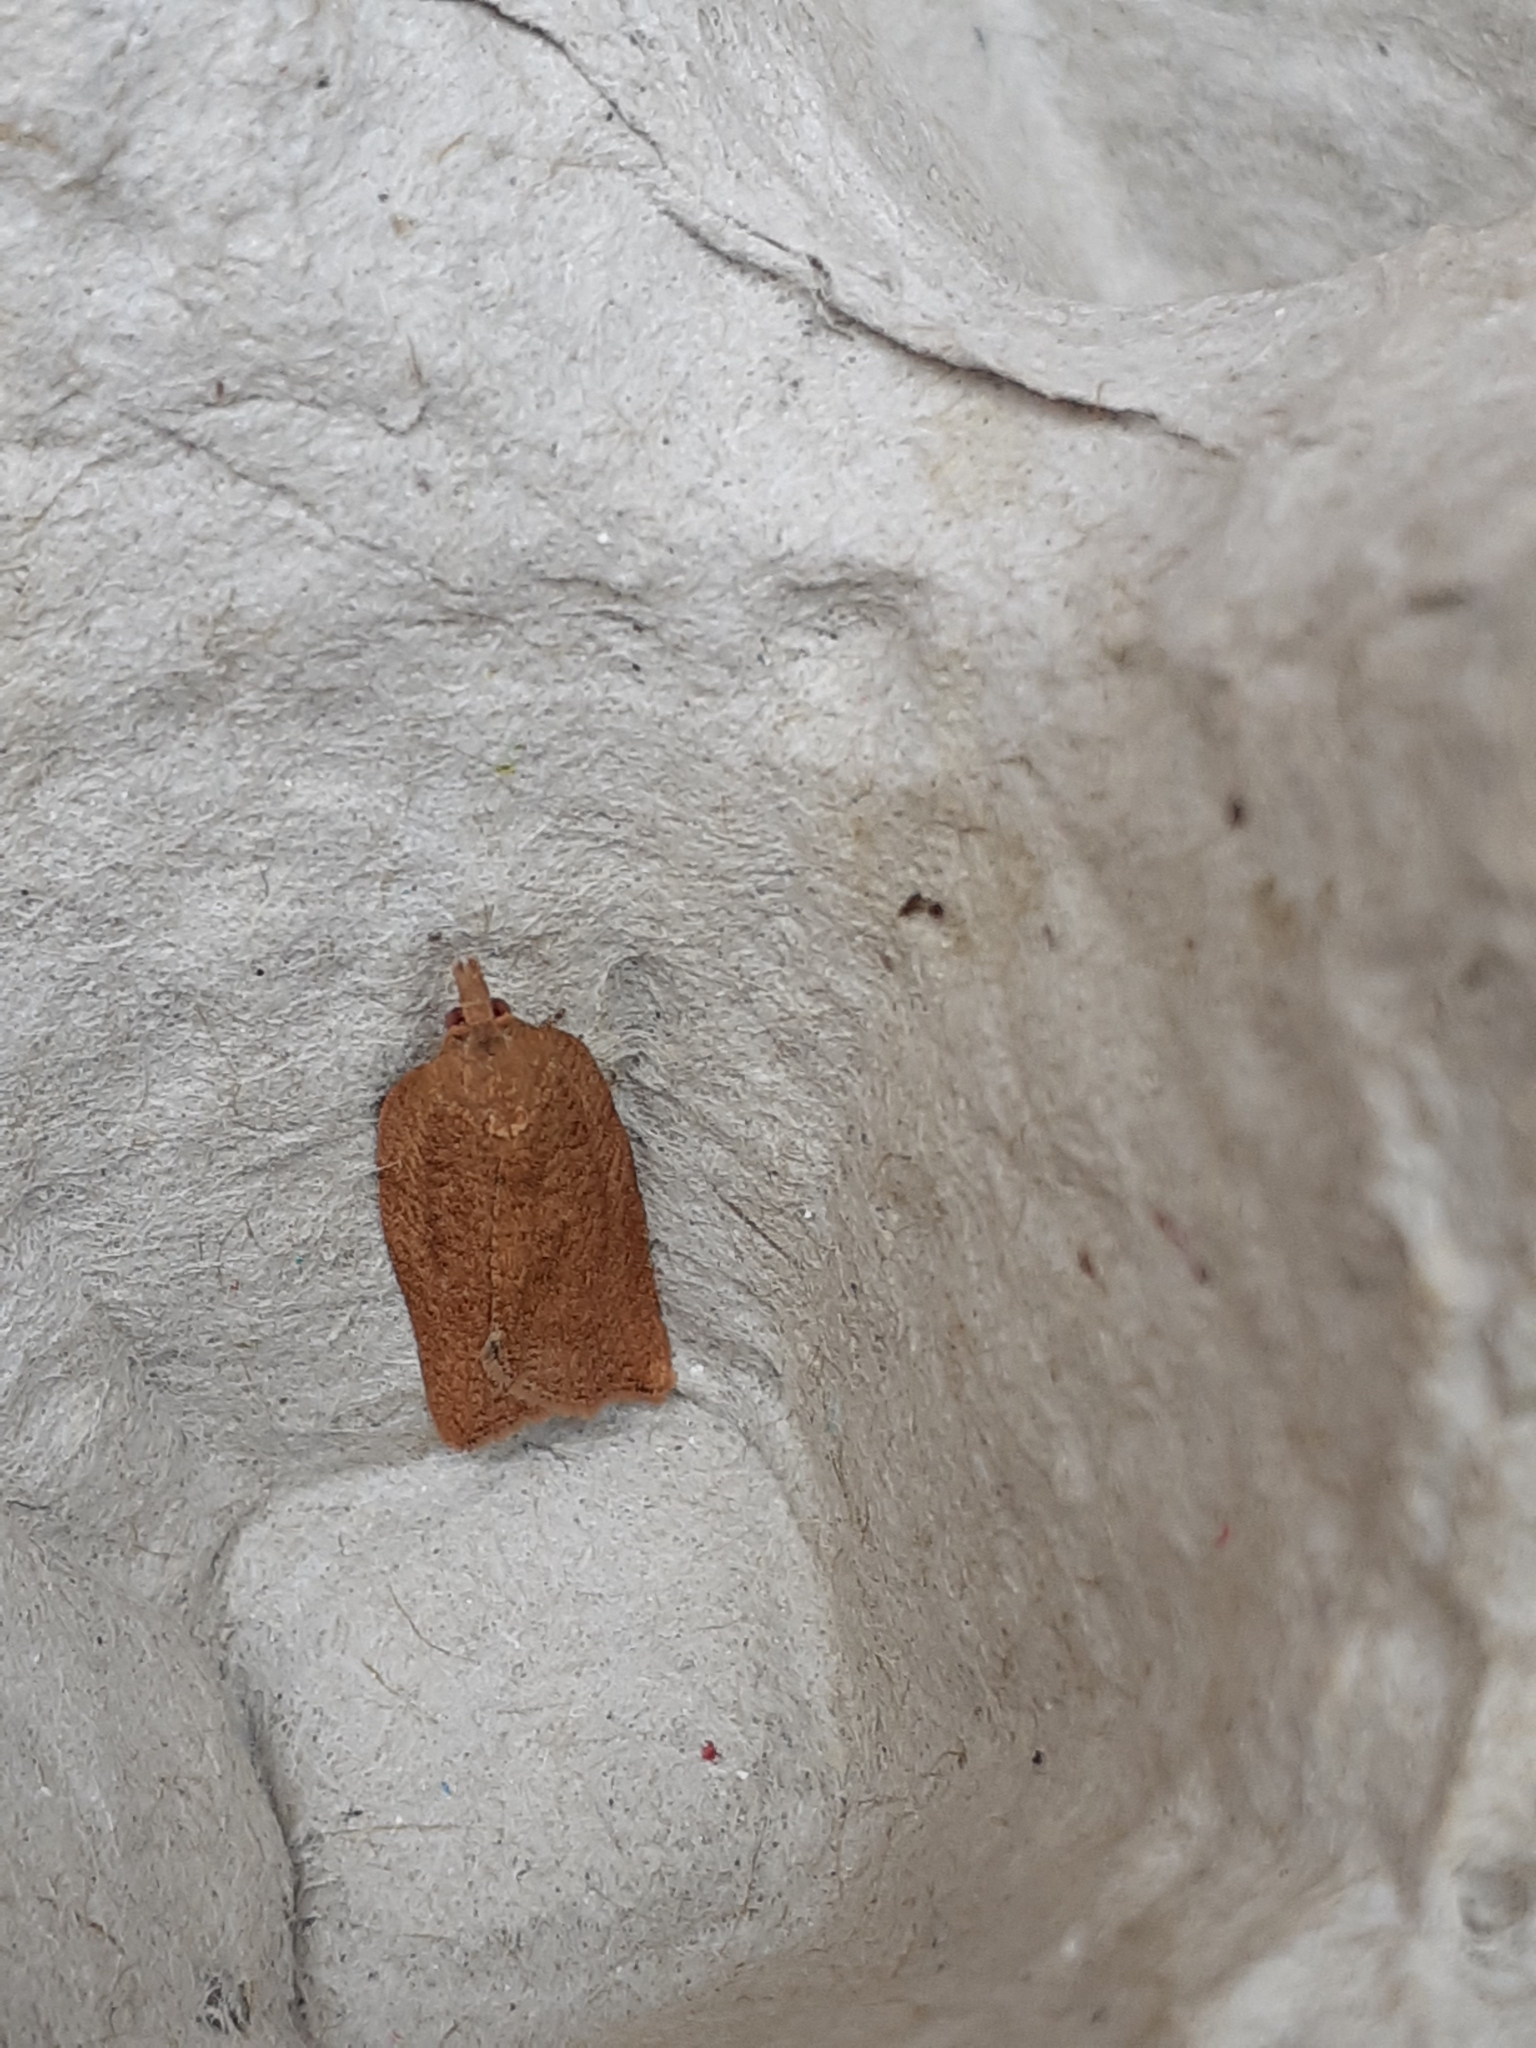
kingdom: Animalia
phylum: Arthropoda
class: Insecta
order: Lepidoptera
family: Tortricidae
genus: Epiphyas
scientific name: Epiphyas postvittana
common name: Light brown apple moth
